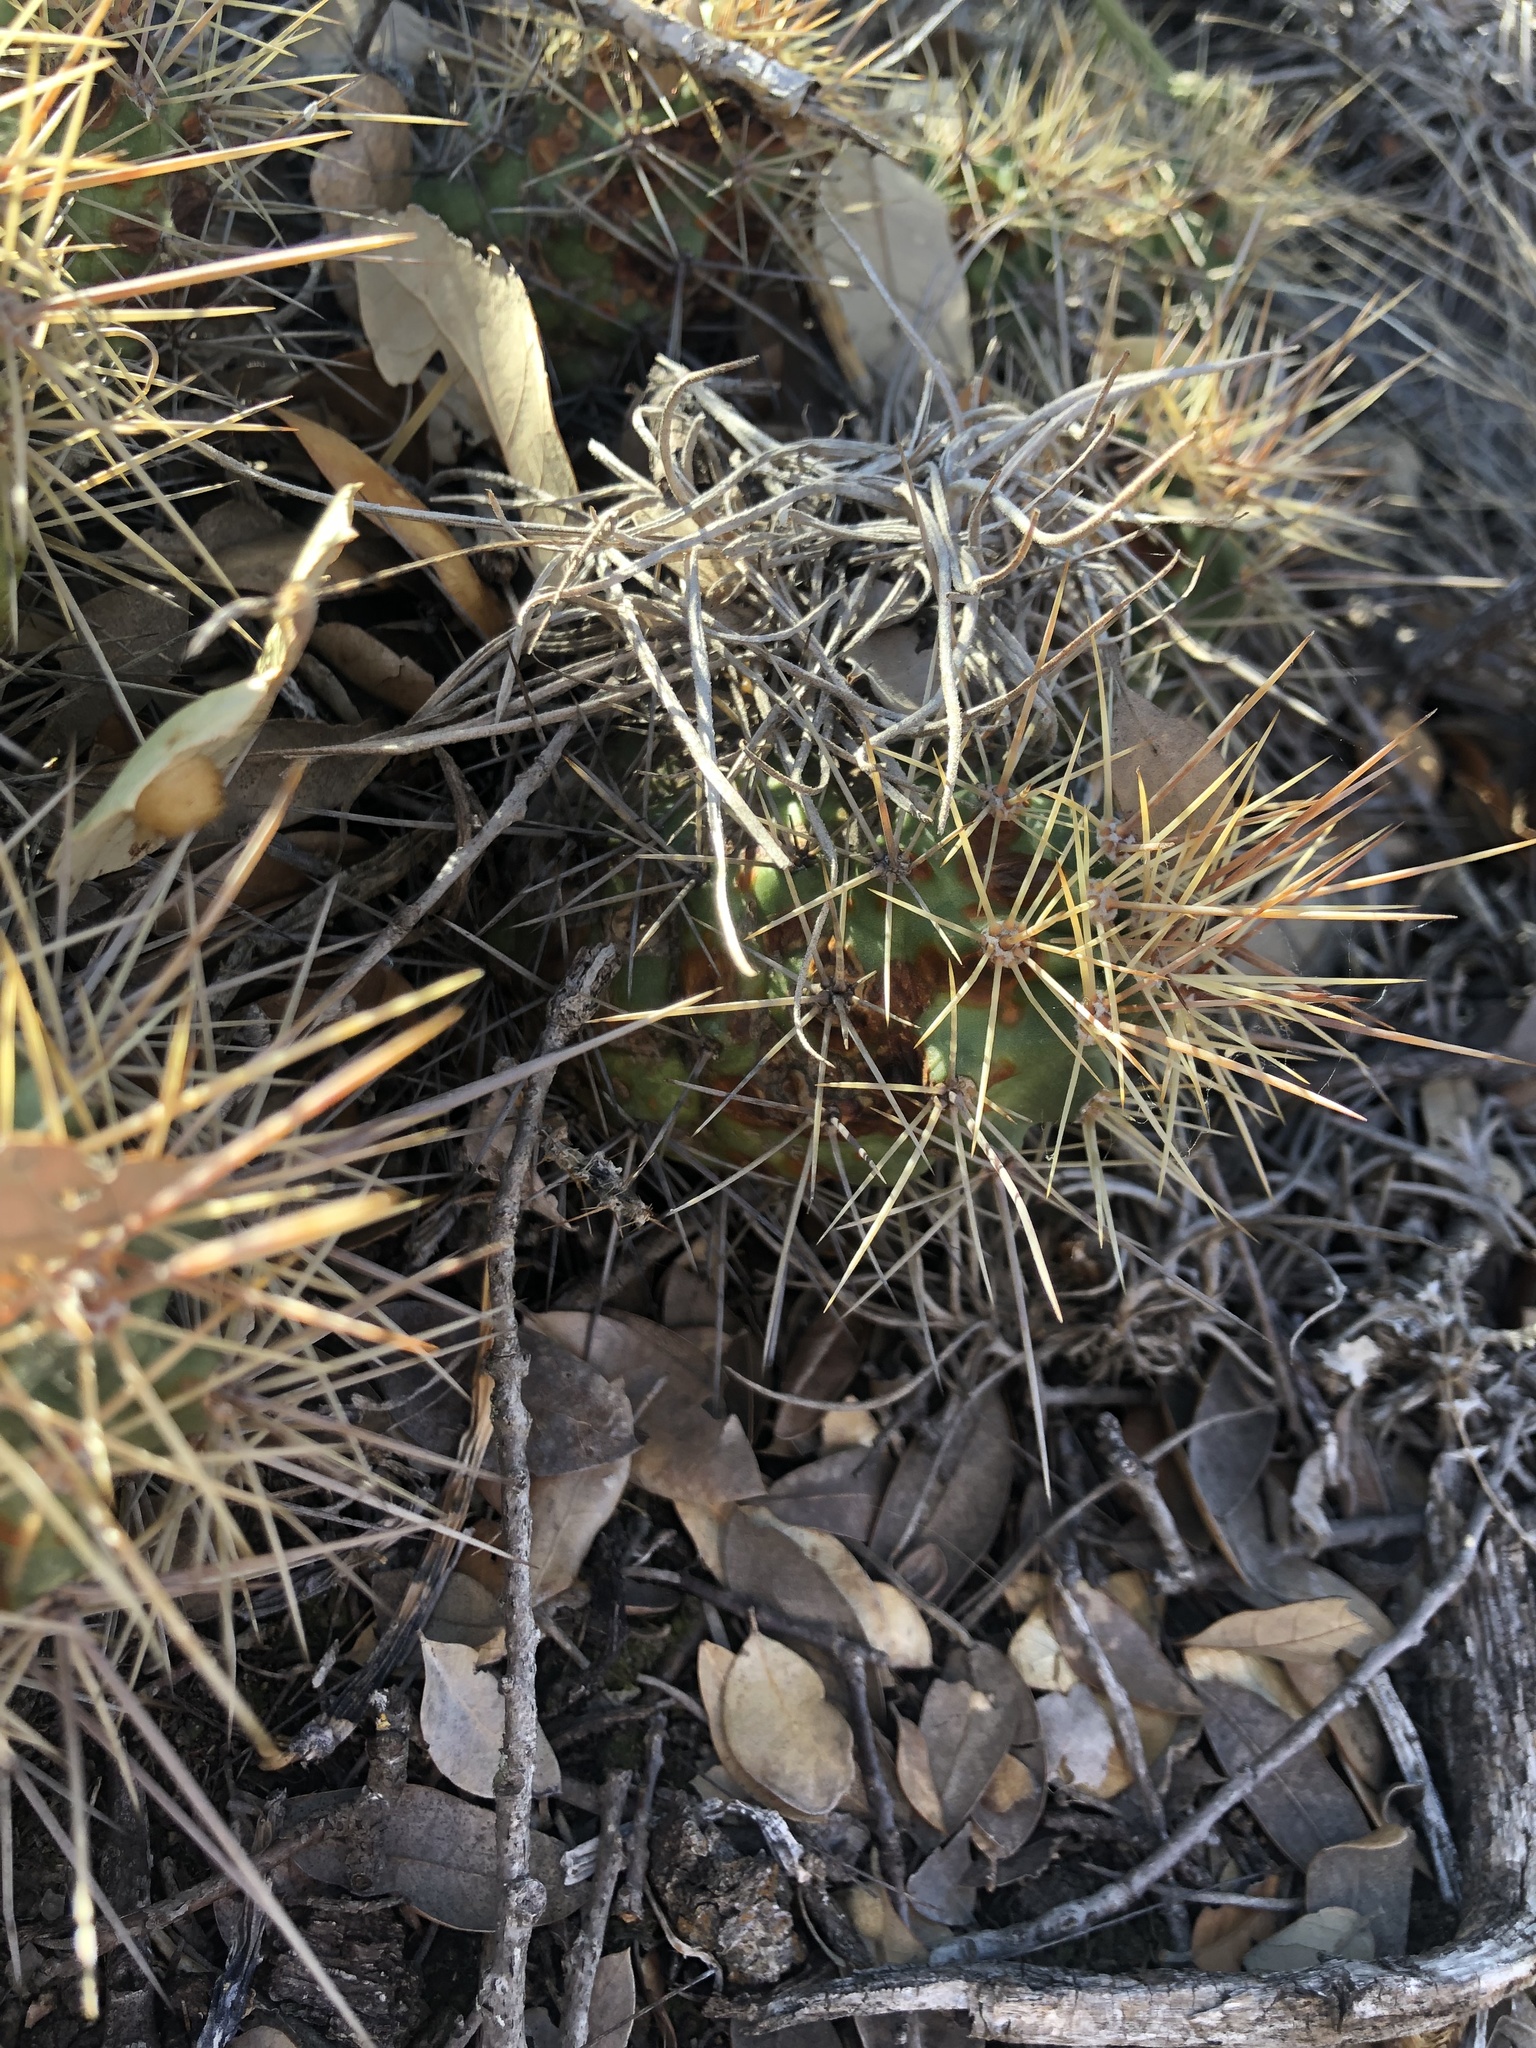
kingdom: Plantae
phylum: Tracheophyta
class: Magnoliopsida
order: Caryophyllales
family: Cactaceae
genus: Echinocereus
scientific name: Echinocereus coccineus
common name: Scarlet hedgehog cactus
